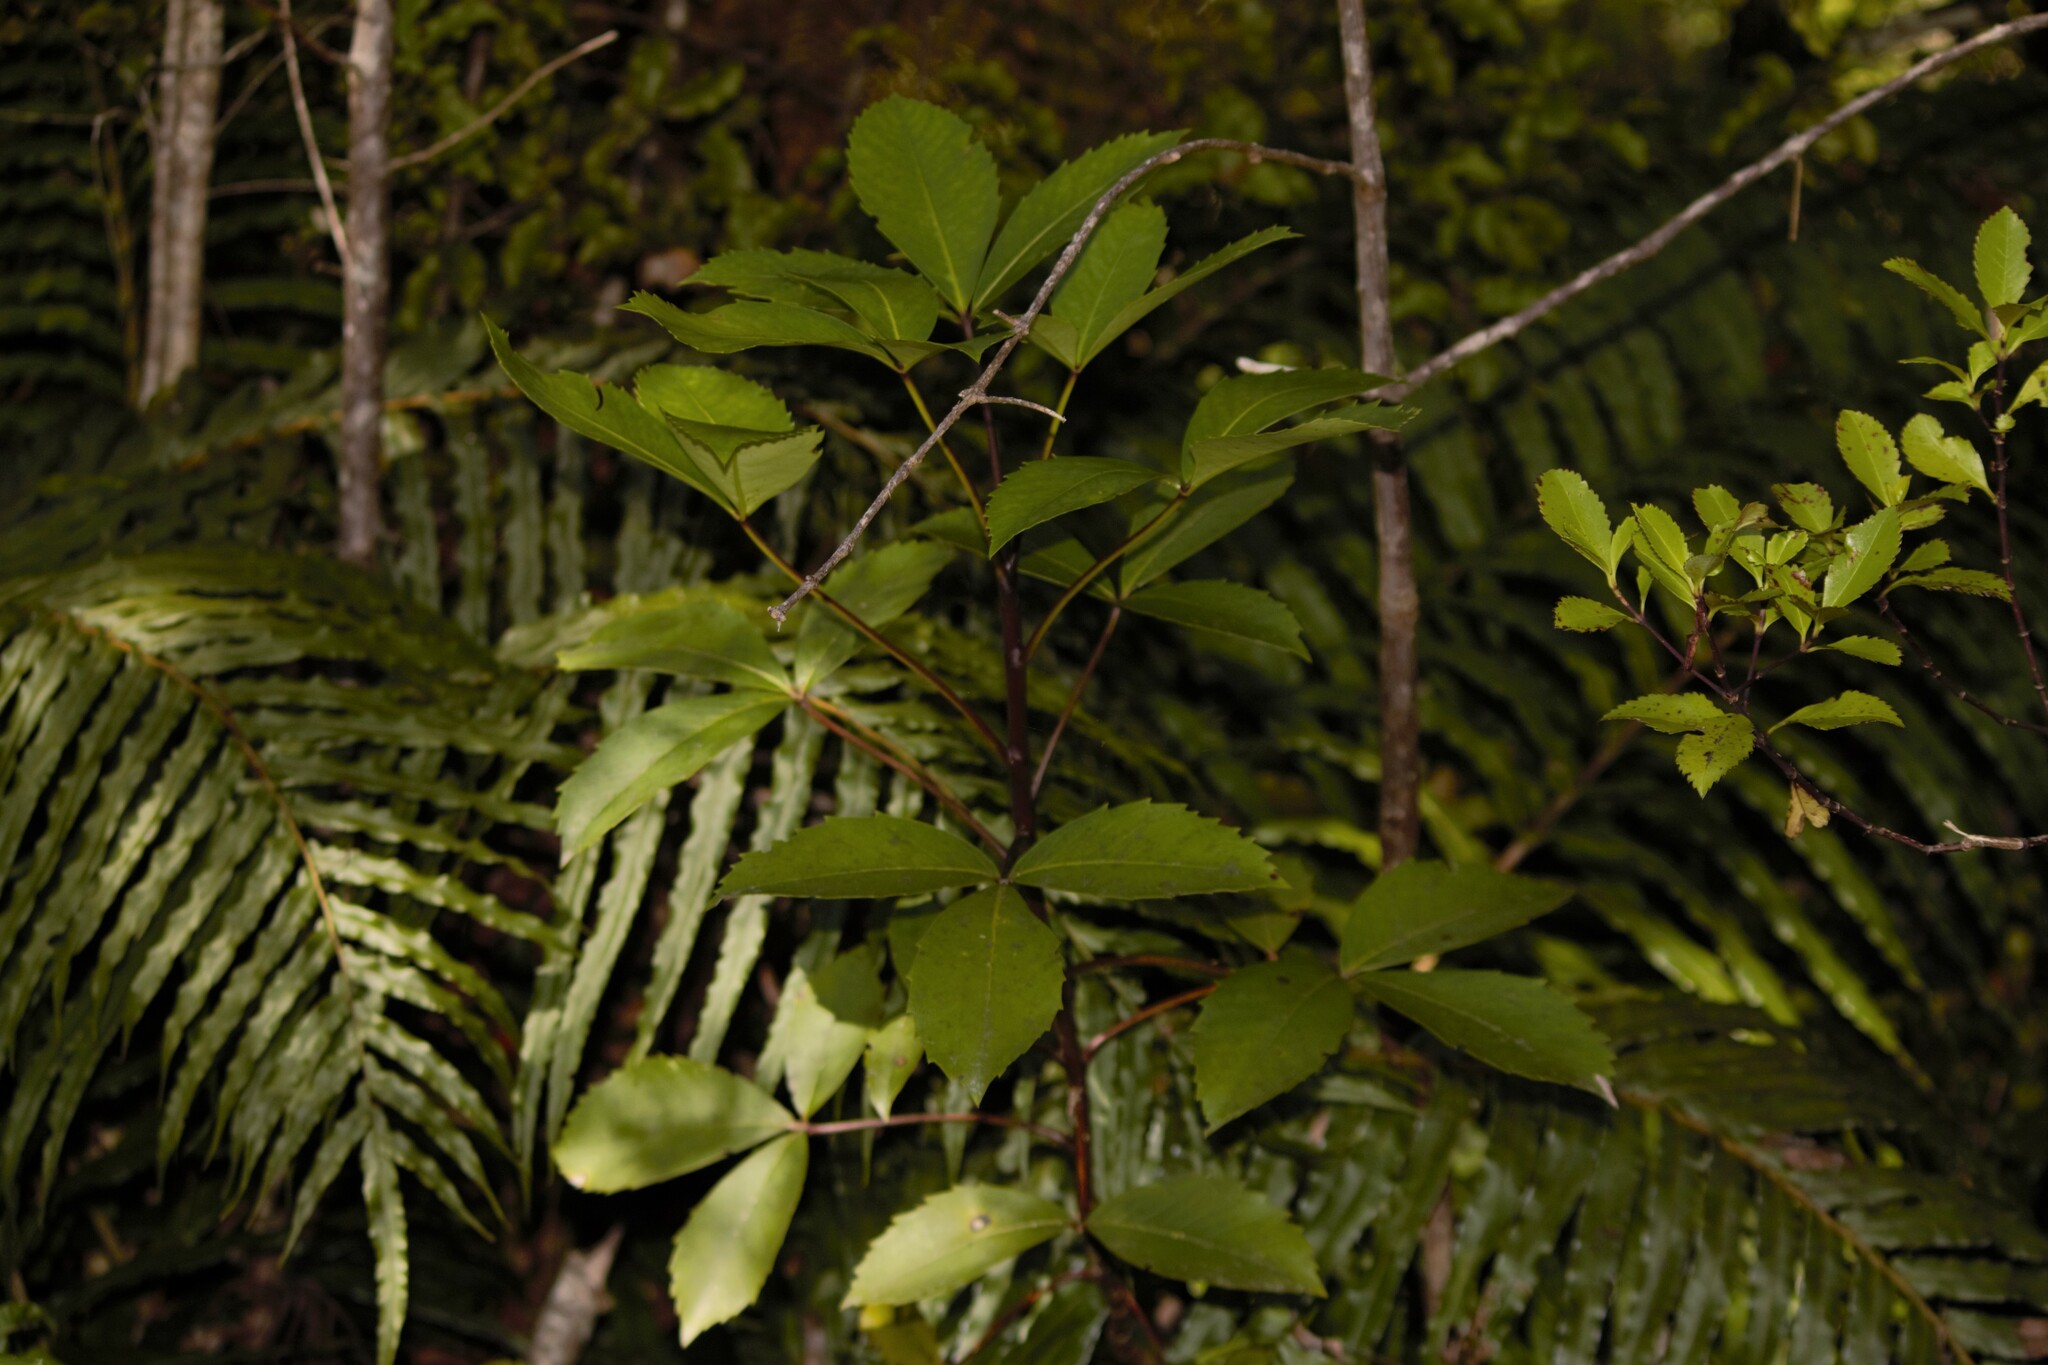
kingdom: Plantae
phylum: Tracheophyta
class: Magnoliopsida
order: Apiales
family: Araliaceae
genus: Neopanax
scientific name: Neopanax colensoi
